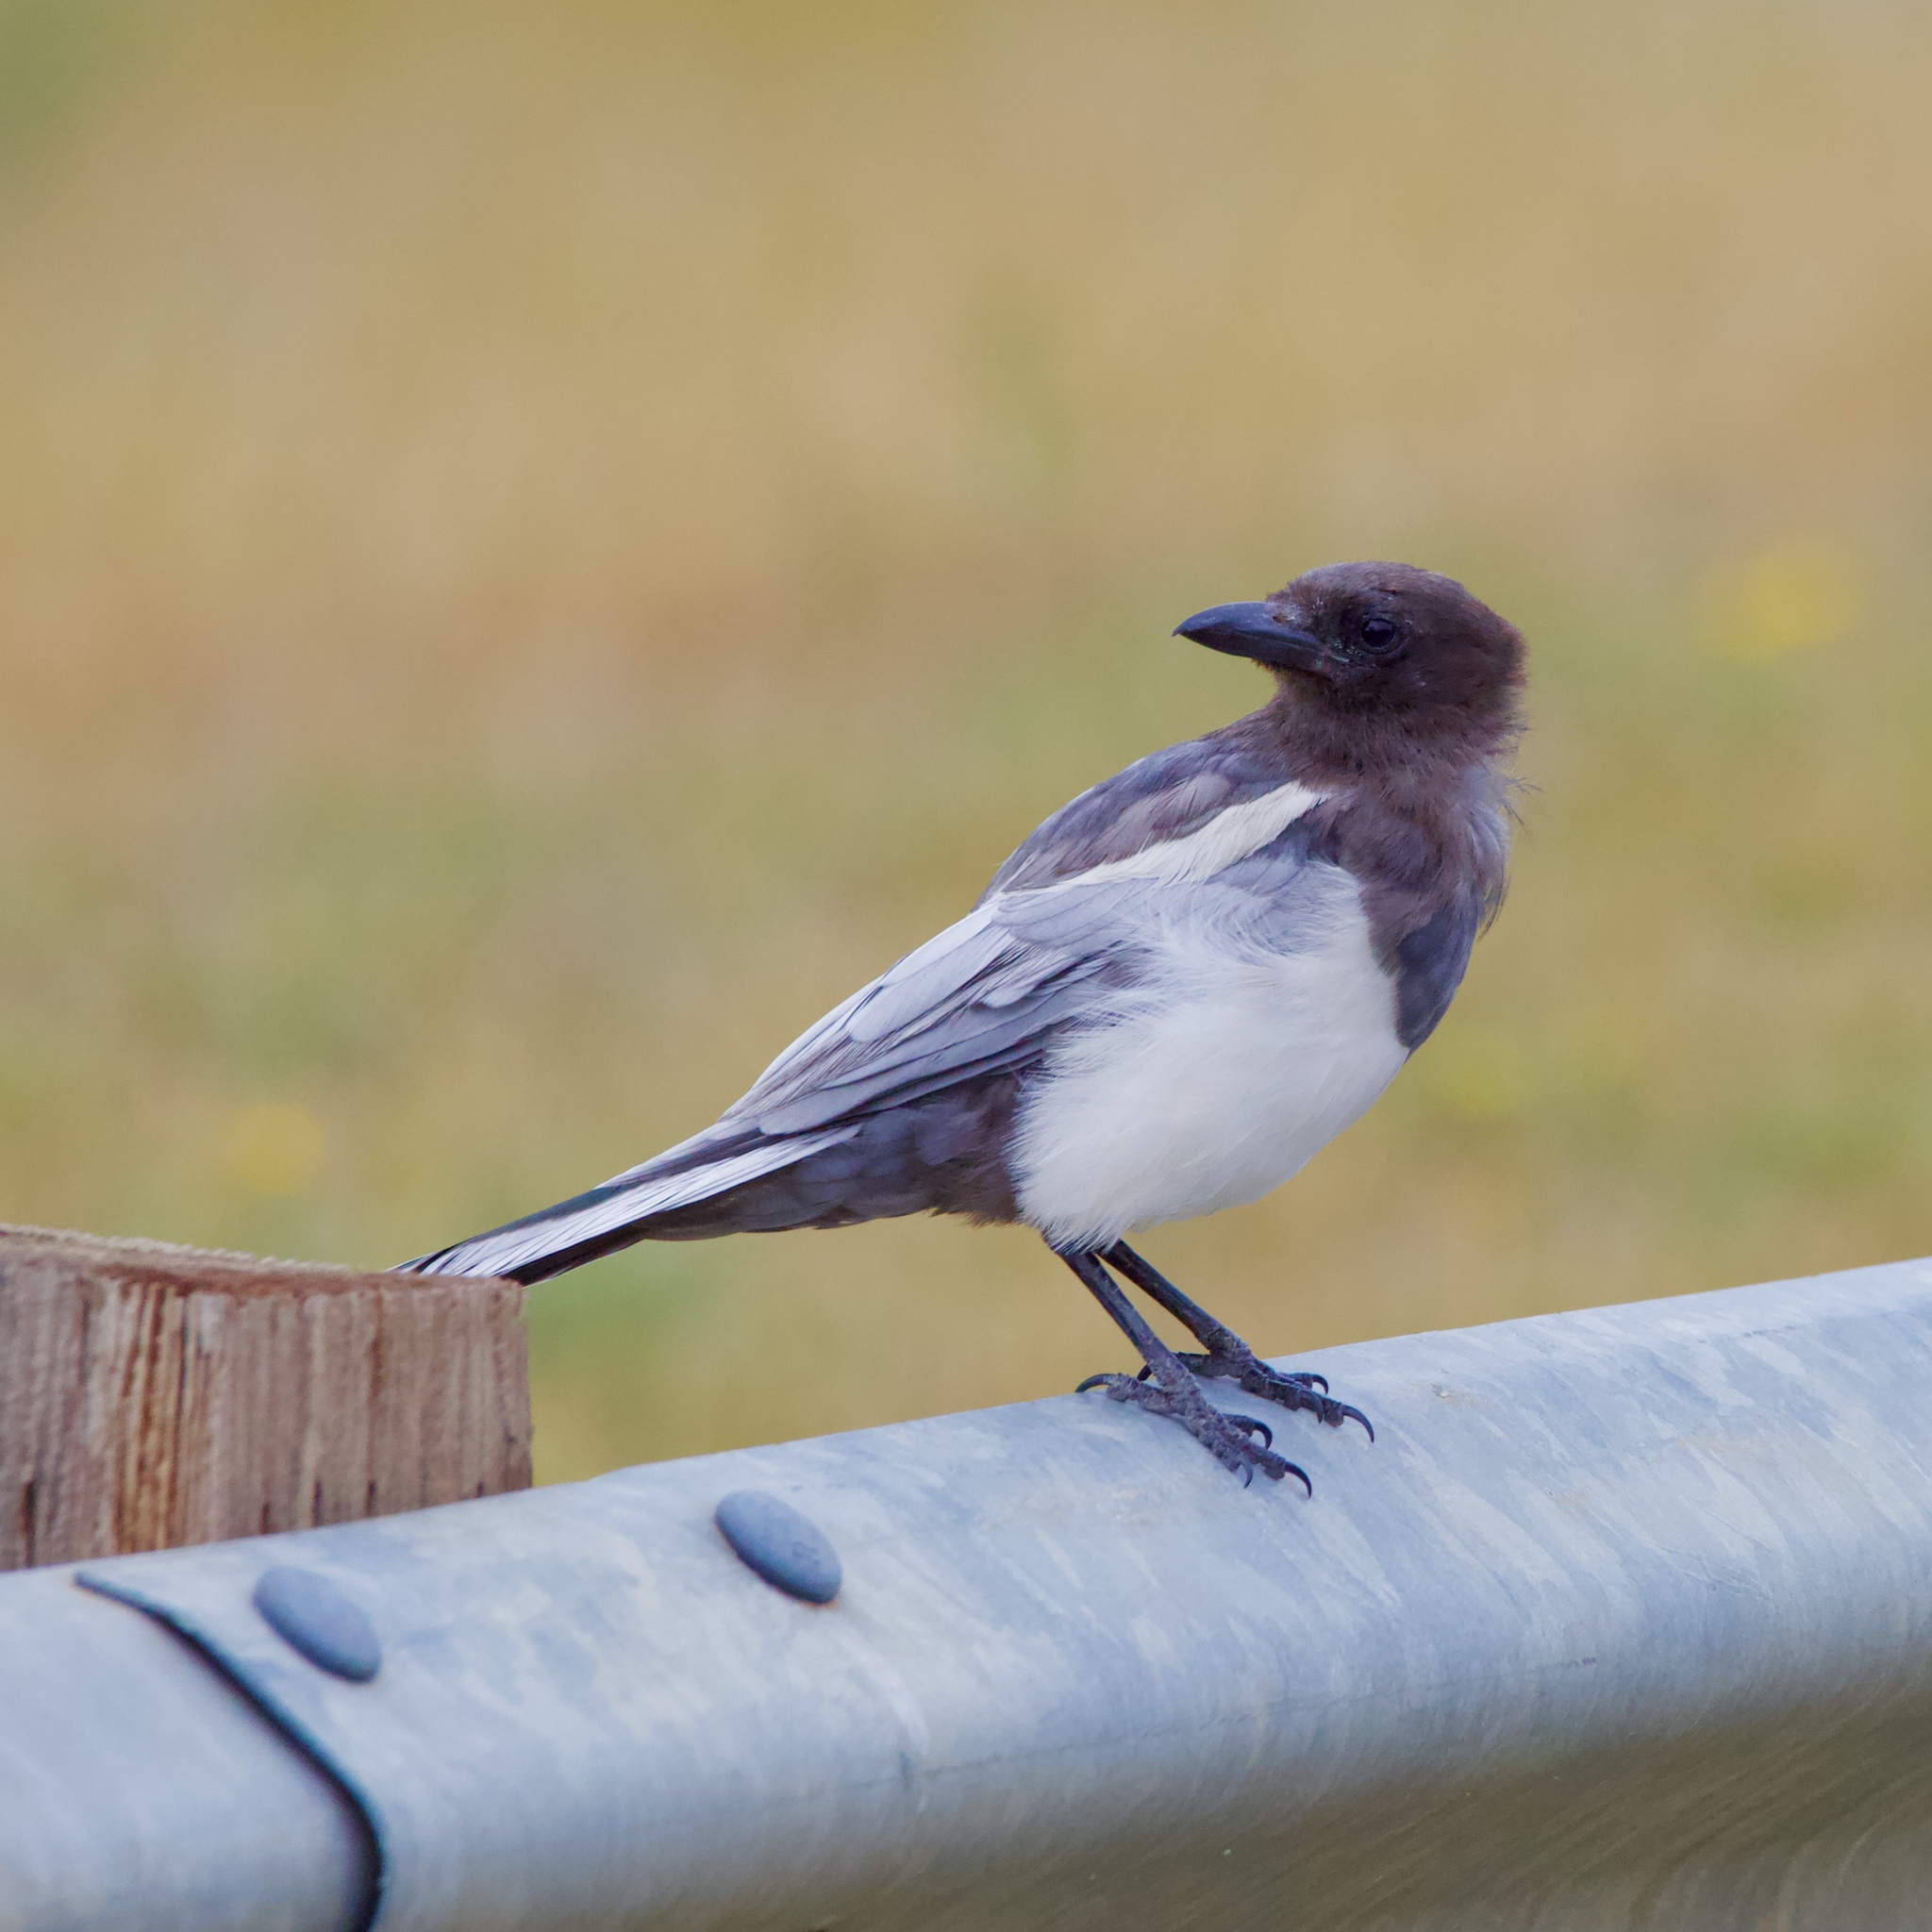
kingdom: Animalia
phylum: Chordata
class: Aves
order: Passeriformes
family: Corvidae
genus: Pica
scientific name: Pica hudsonia
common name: Black-billed magpie
